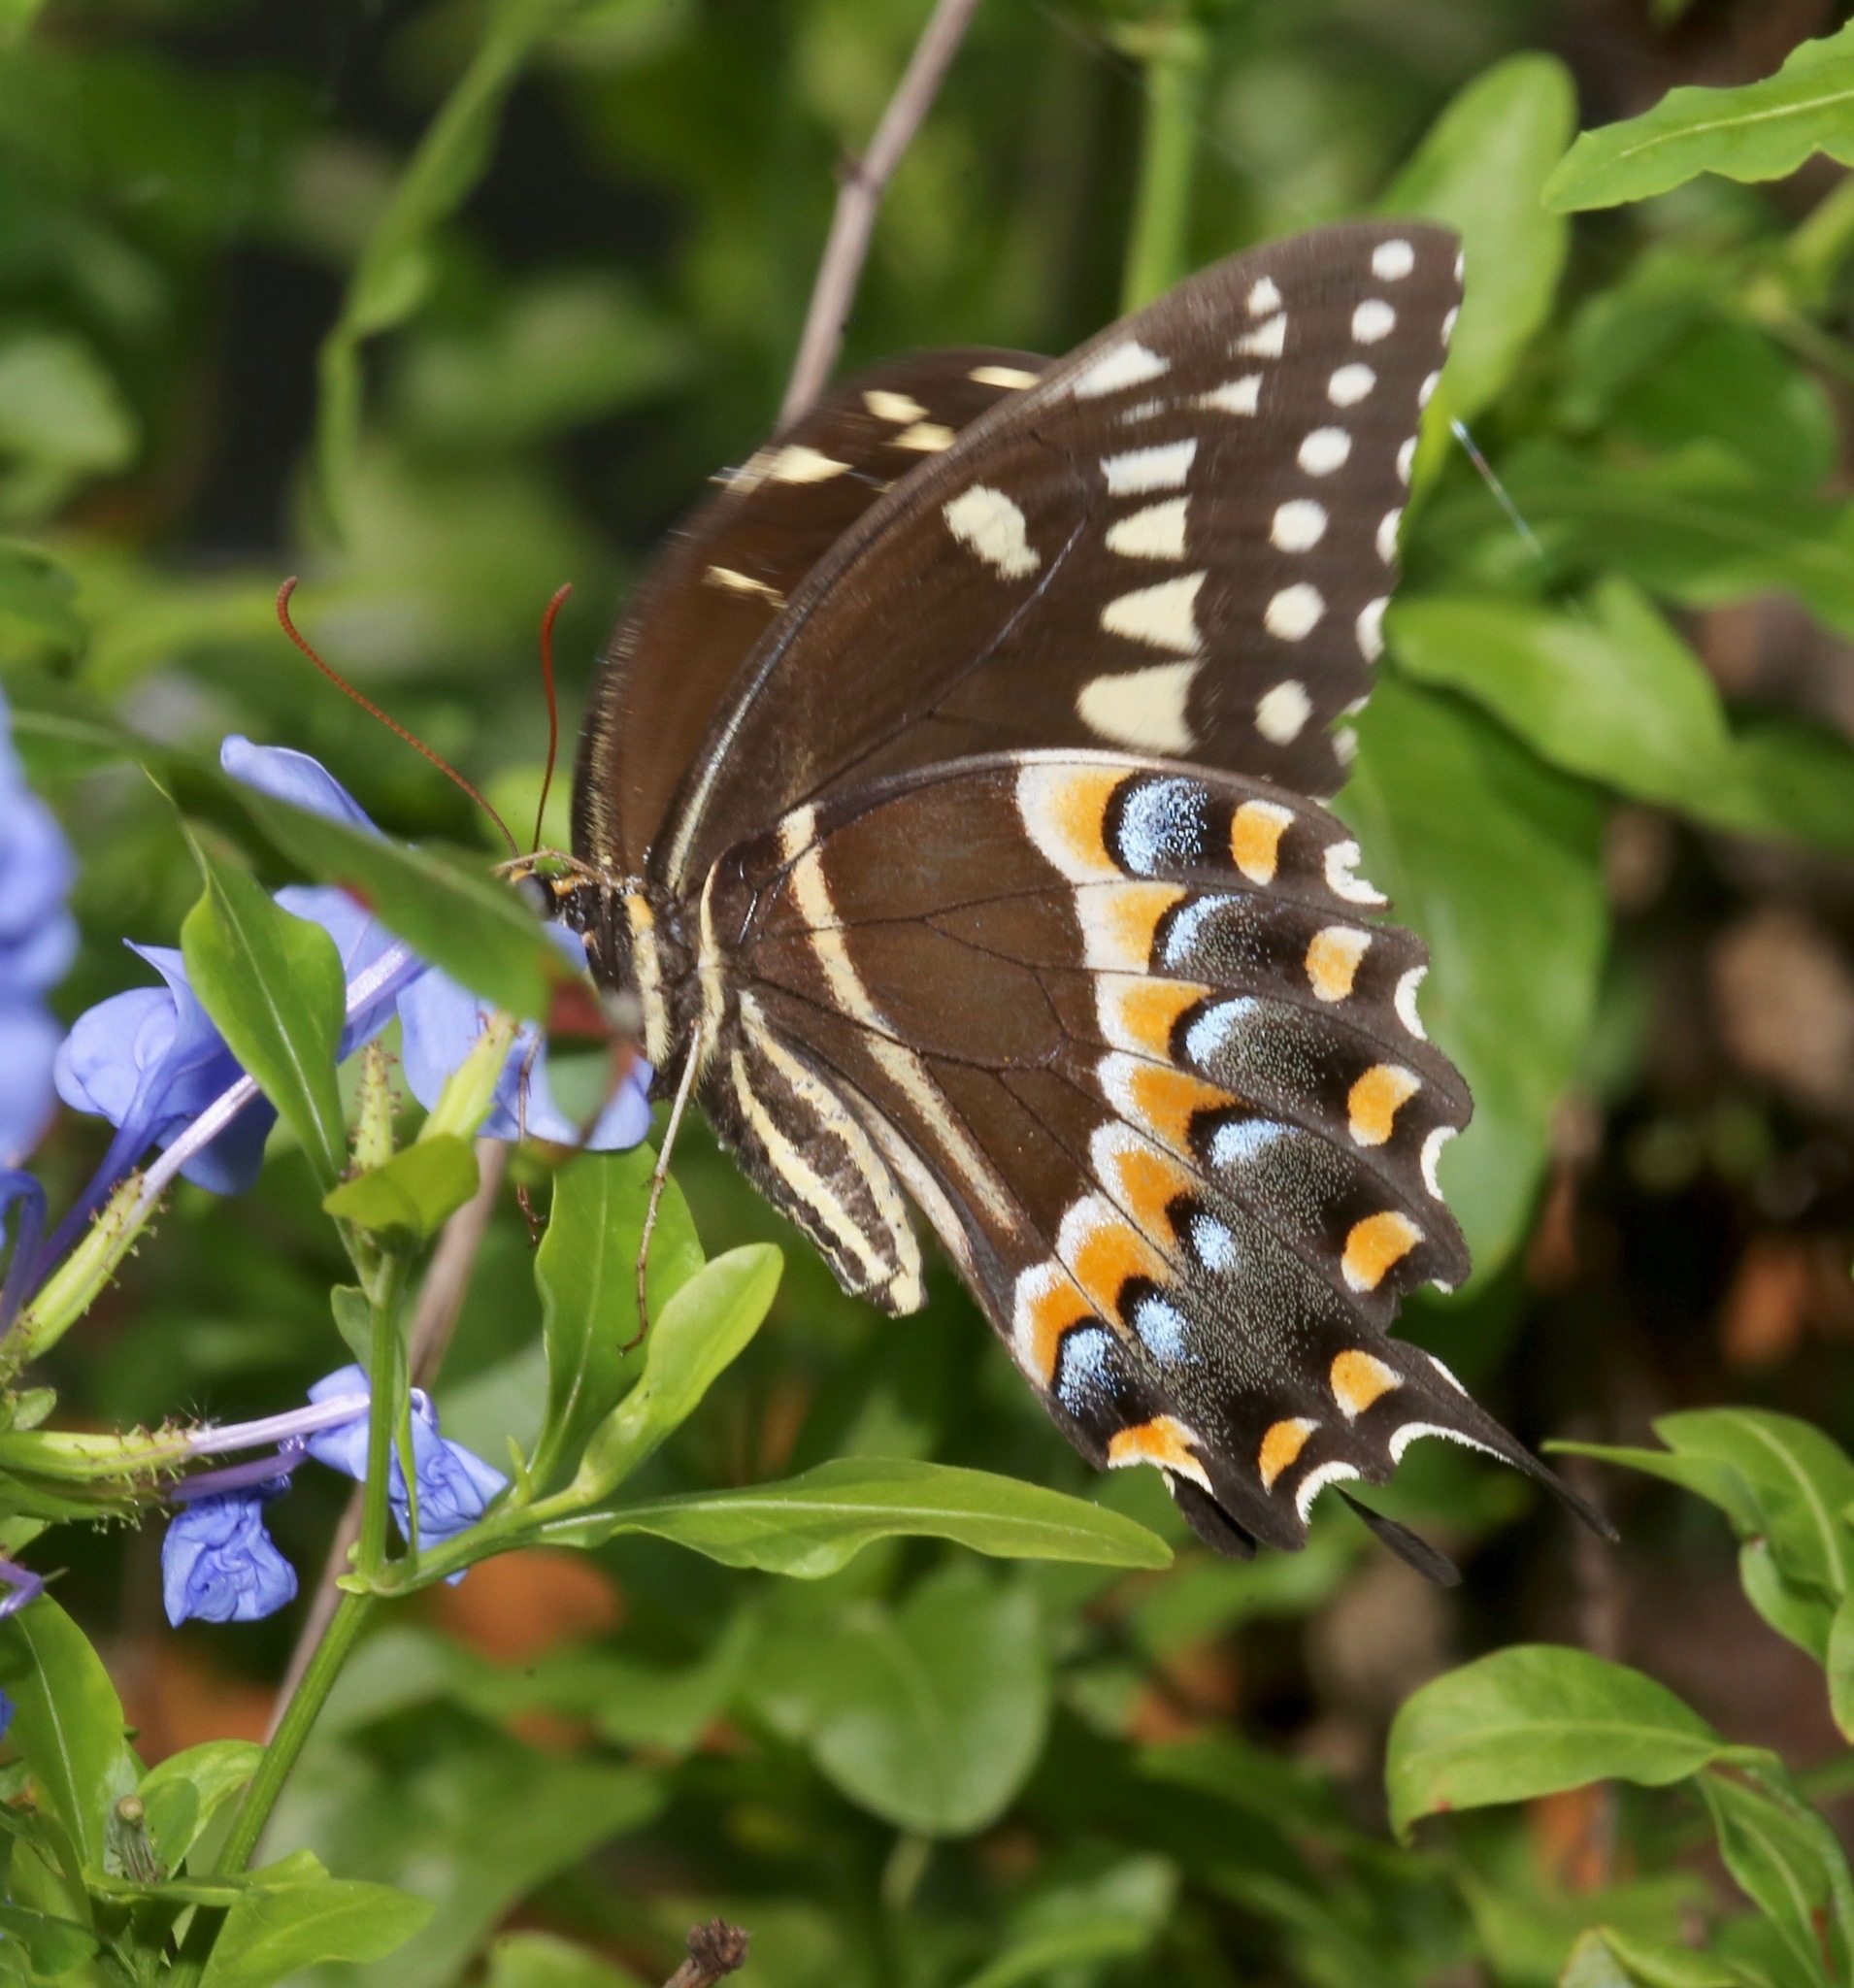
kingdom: Animalia
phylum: Arthropoda
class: Insecta
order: Lepidoptera
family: Papilionidae
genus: Papilio
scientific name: Papilio palamedes
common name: Palamedes swallowtail
